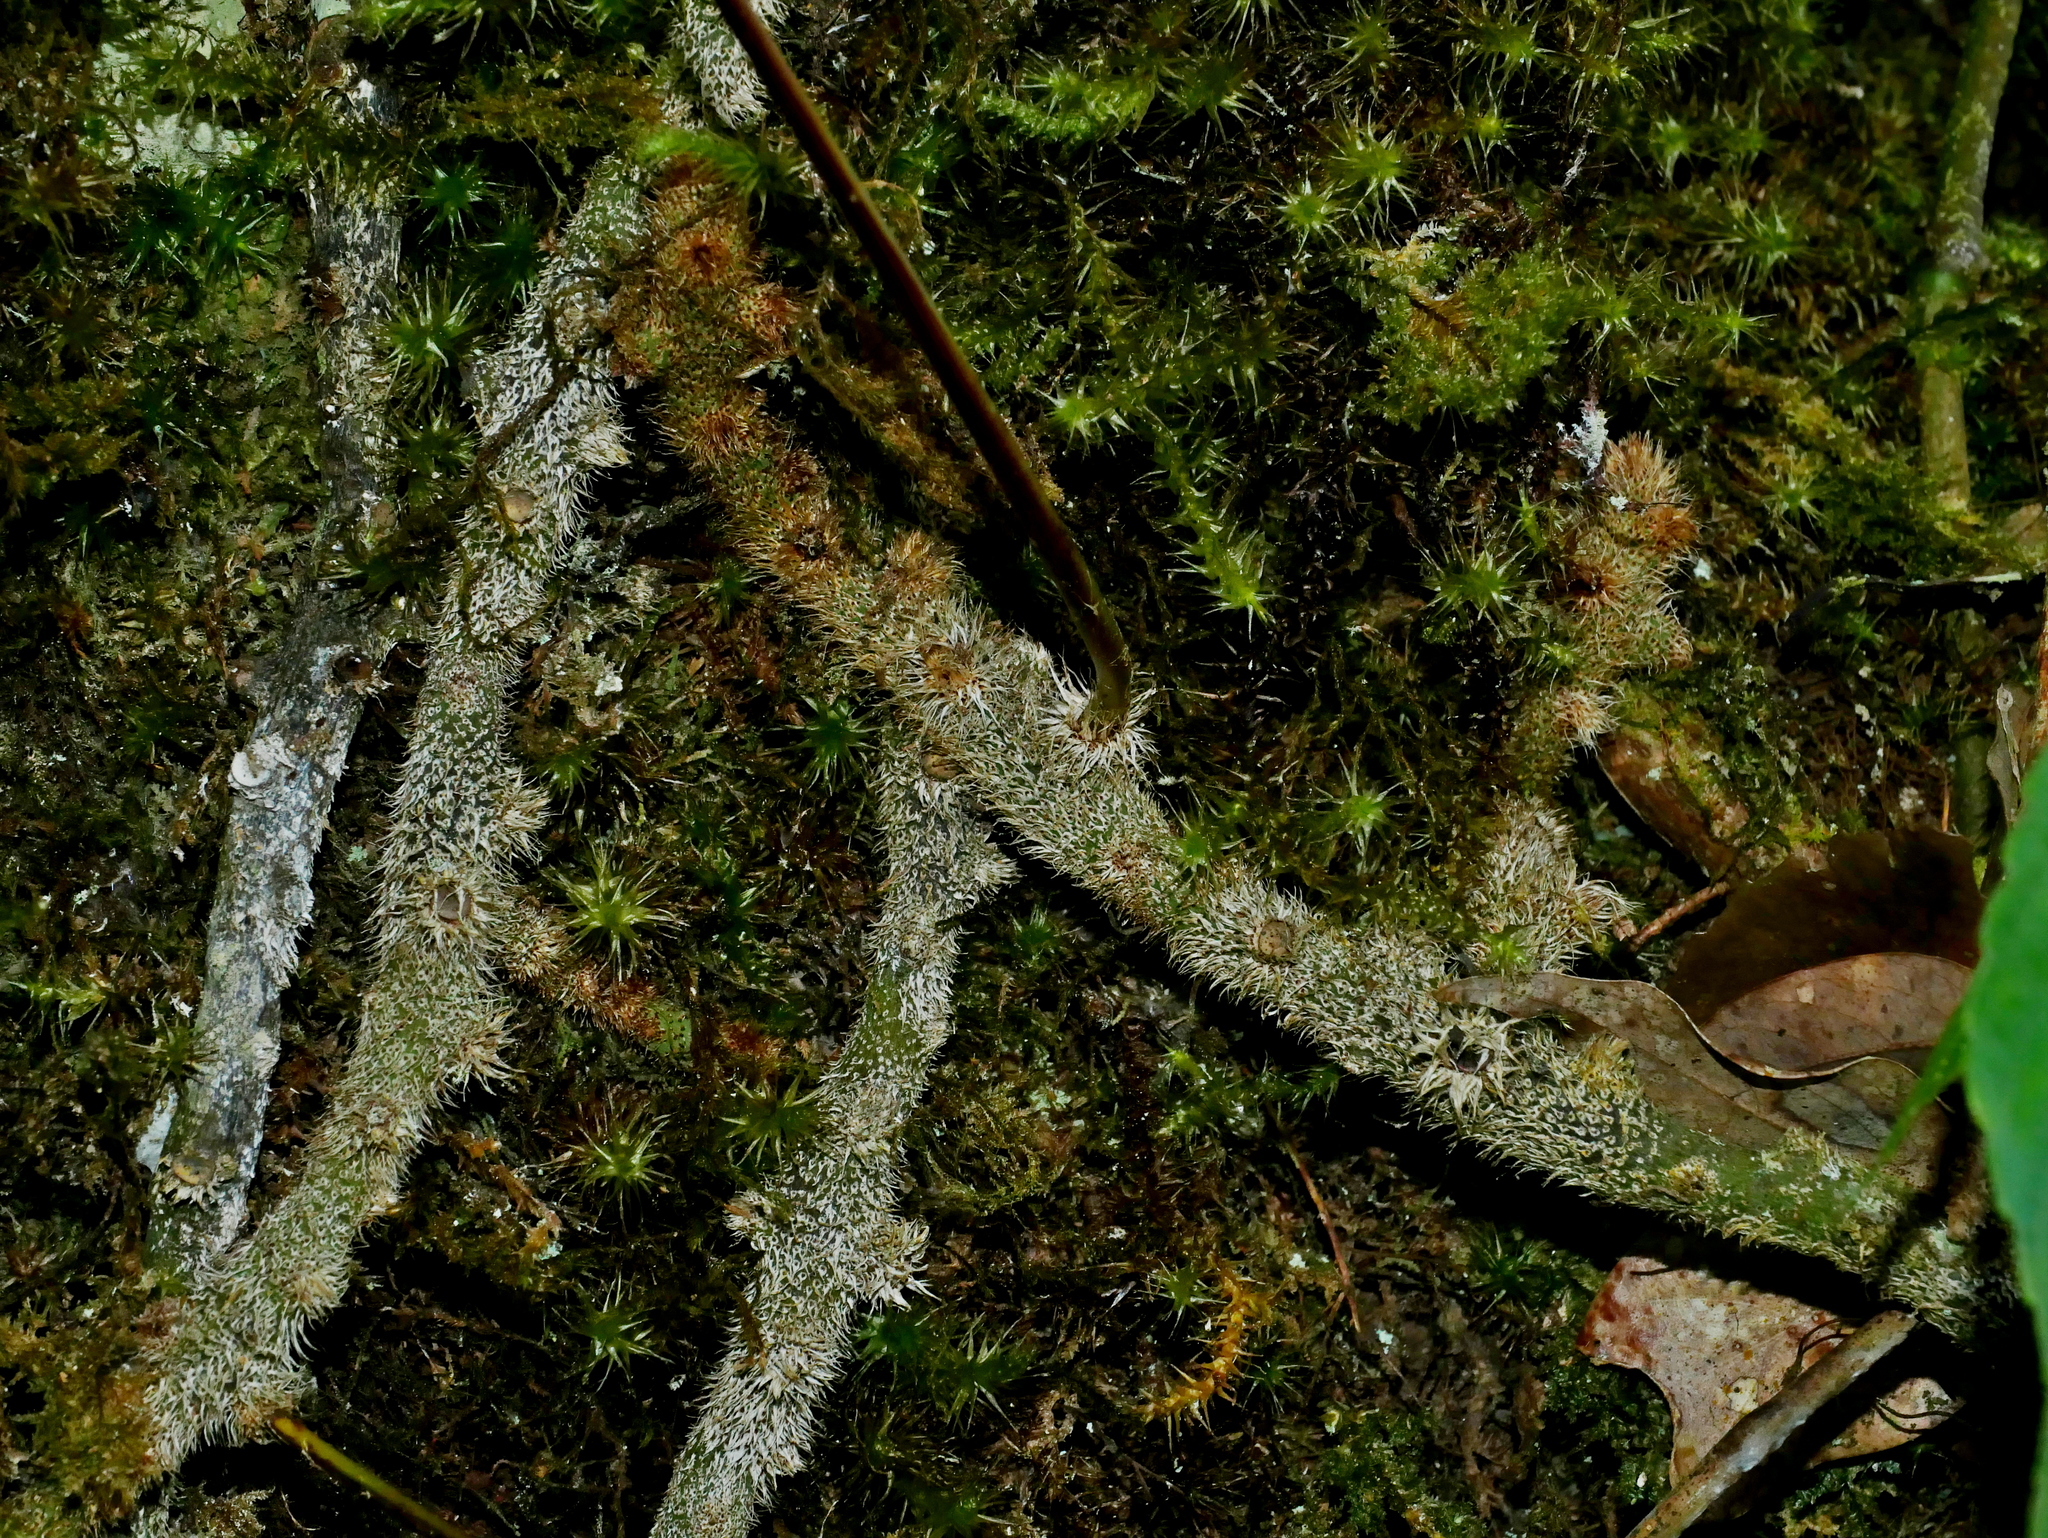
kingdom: Plantae
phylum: Tracheophyta
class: Polypodiopsida
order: Polypodiales
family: Polypodiaceae
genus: Selliguea
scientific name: Selliguea lehmannii
